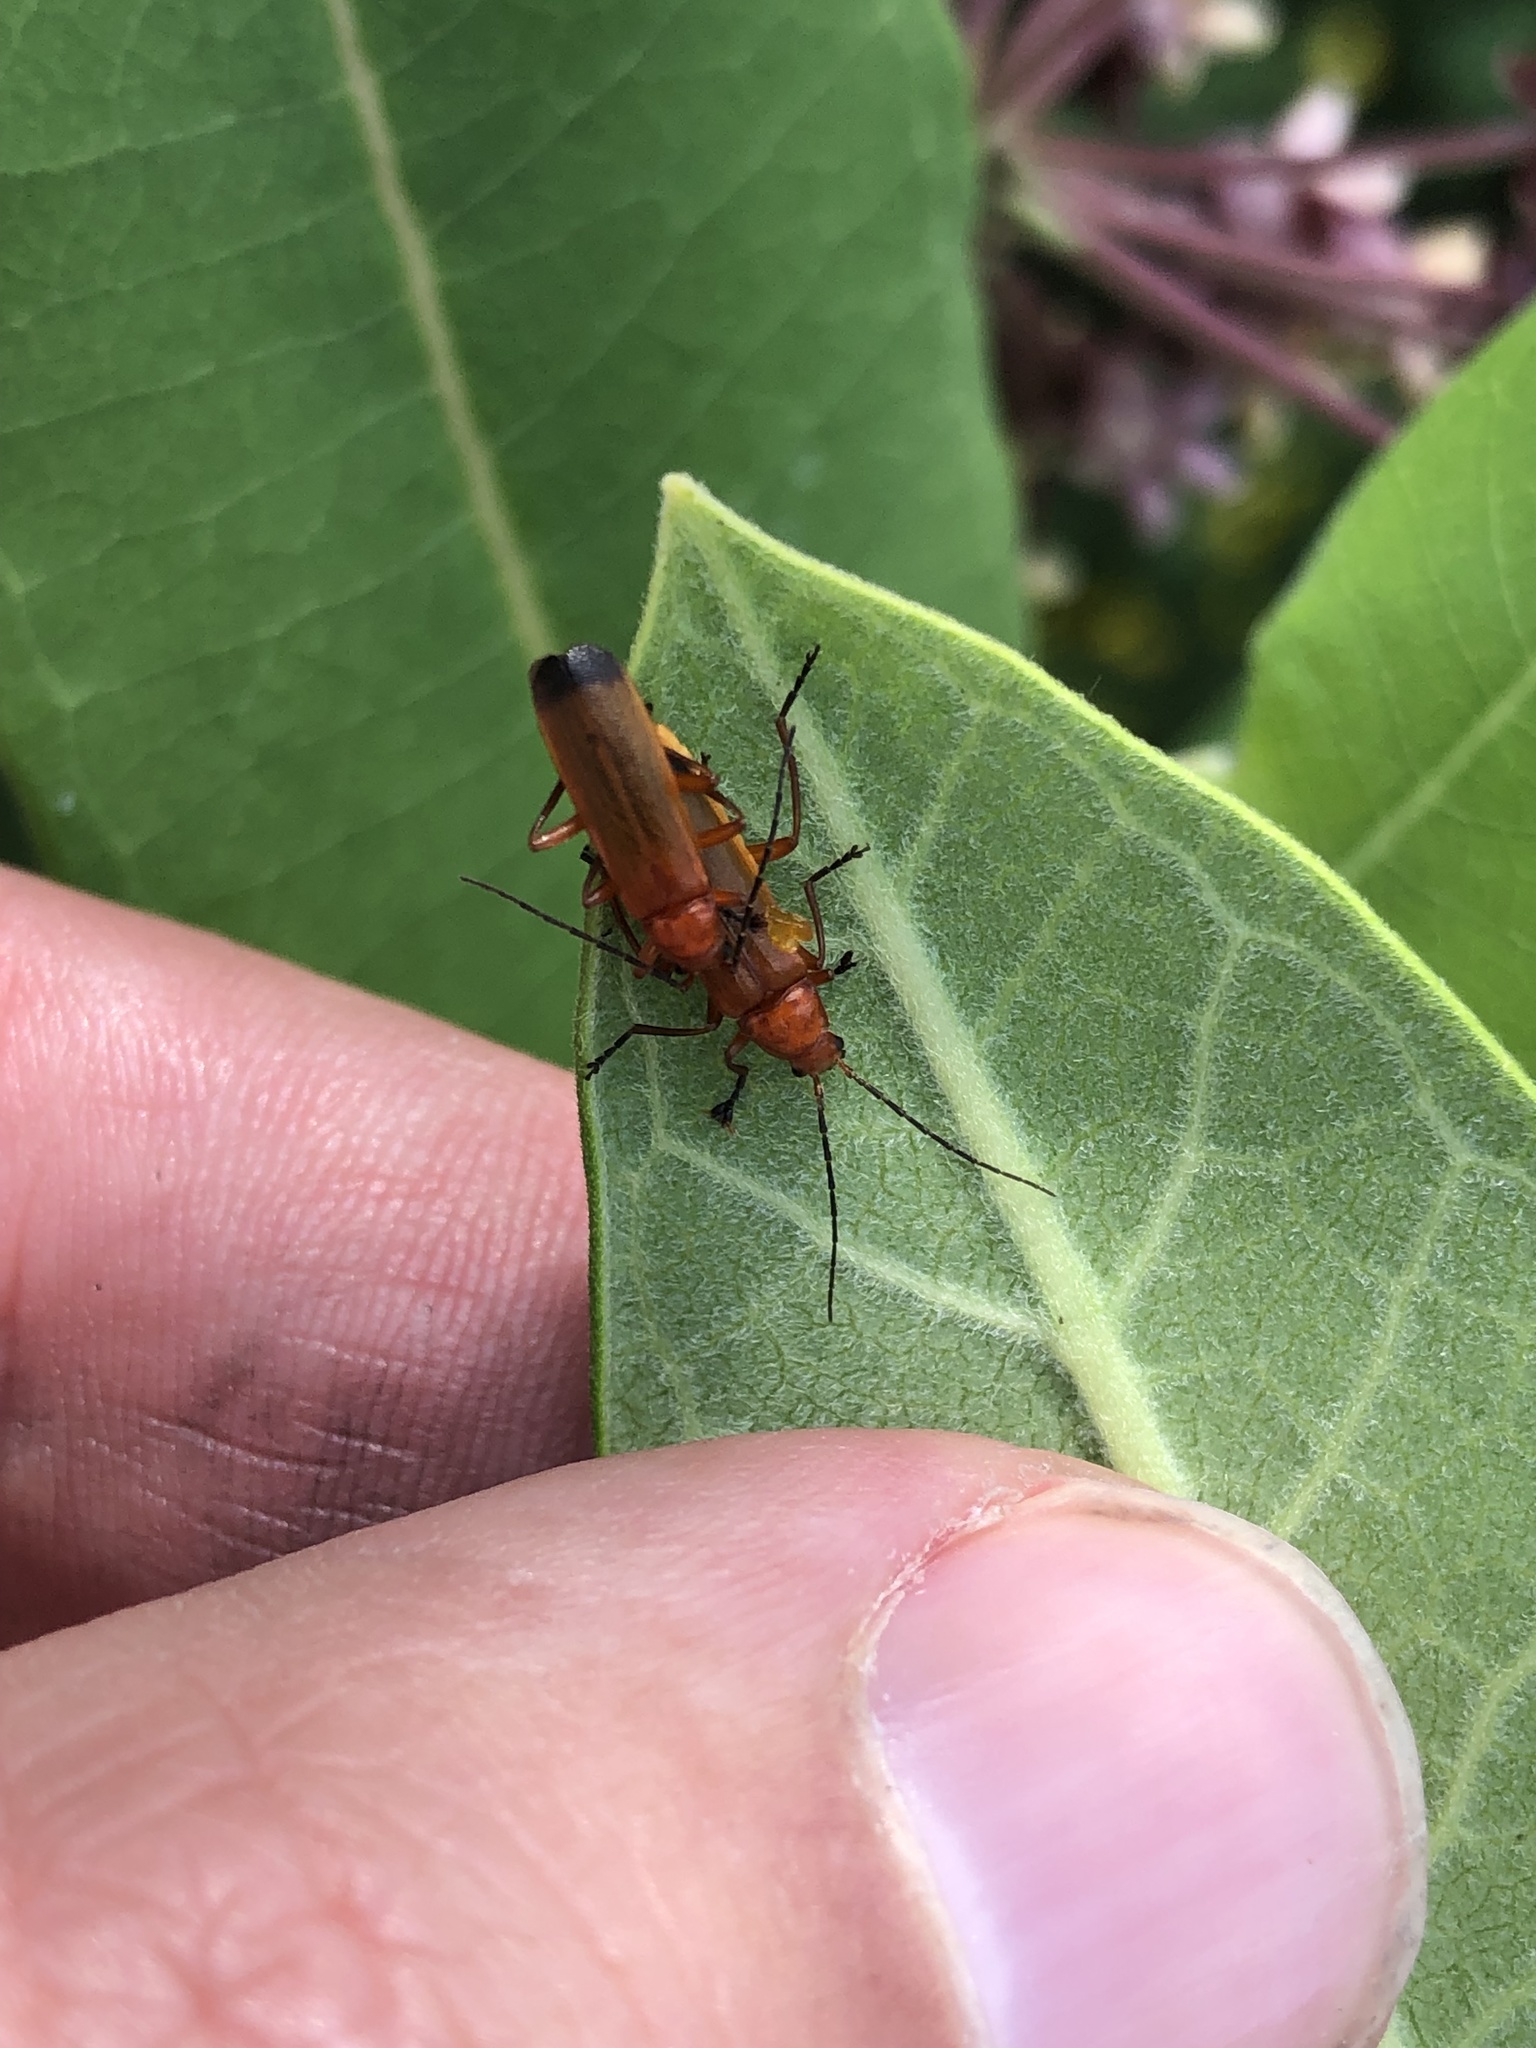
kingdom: Animalia
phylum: Arthropoda
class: Insecta
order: Coleoptera
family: Cantharidae
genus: Rhagonycha
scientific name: Rhagonycha fulva
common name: Common red soldier beetle
